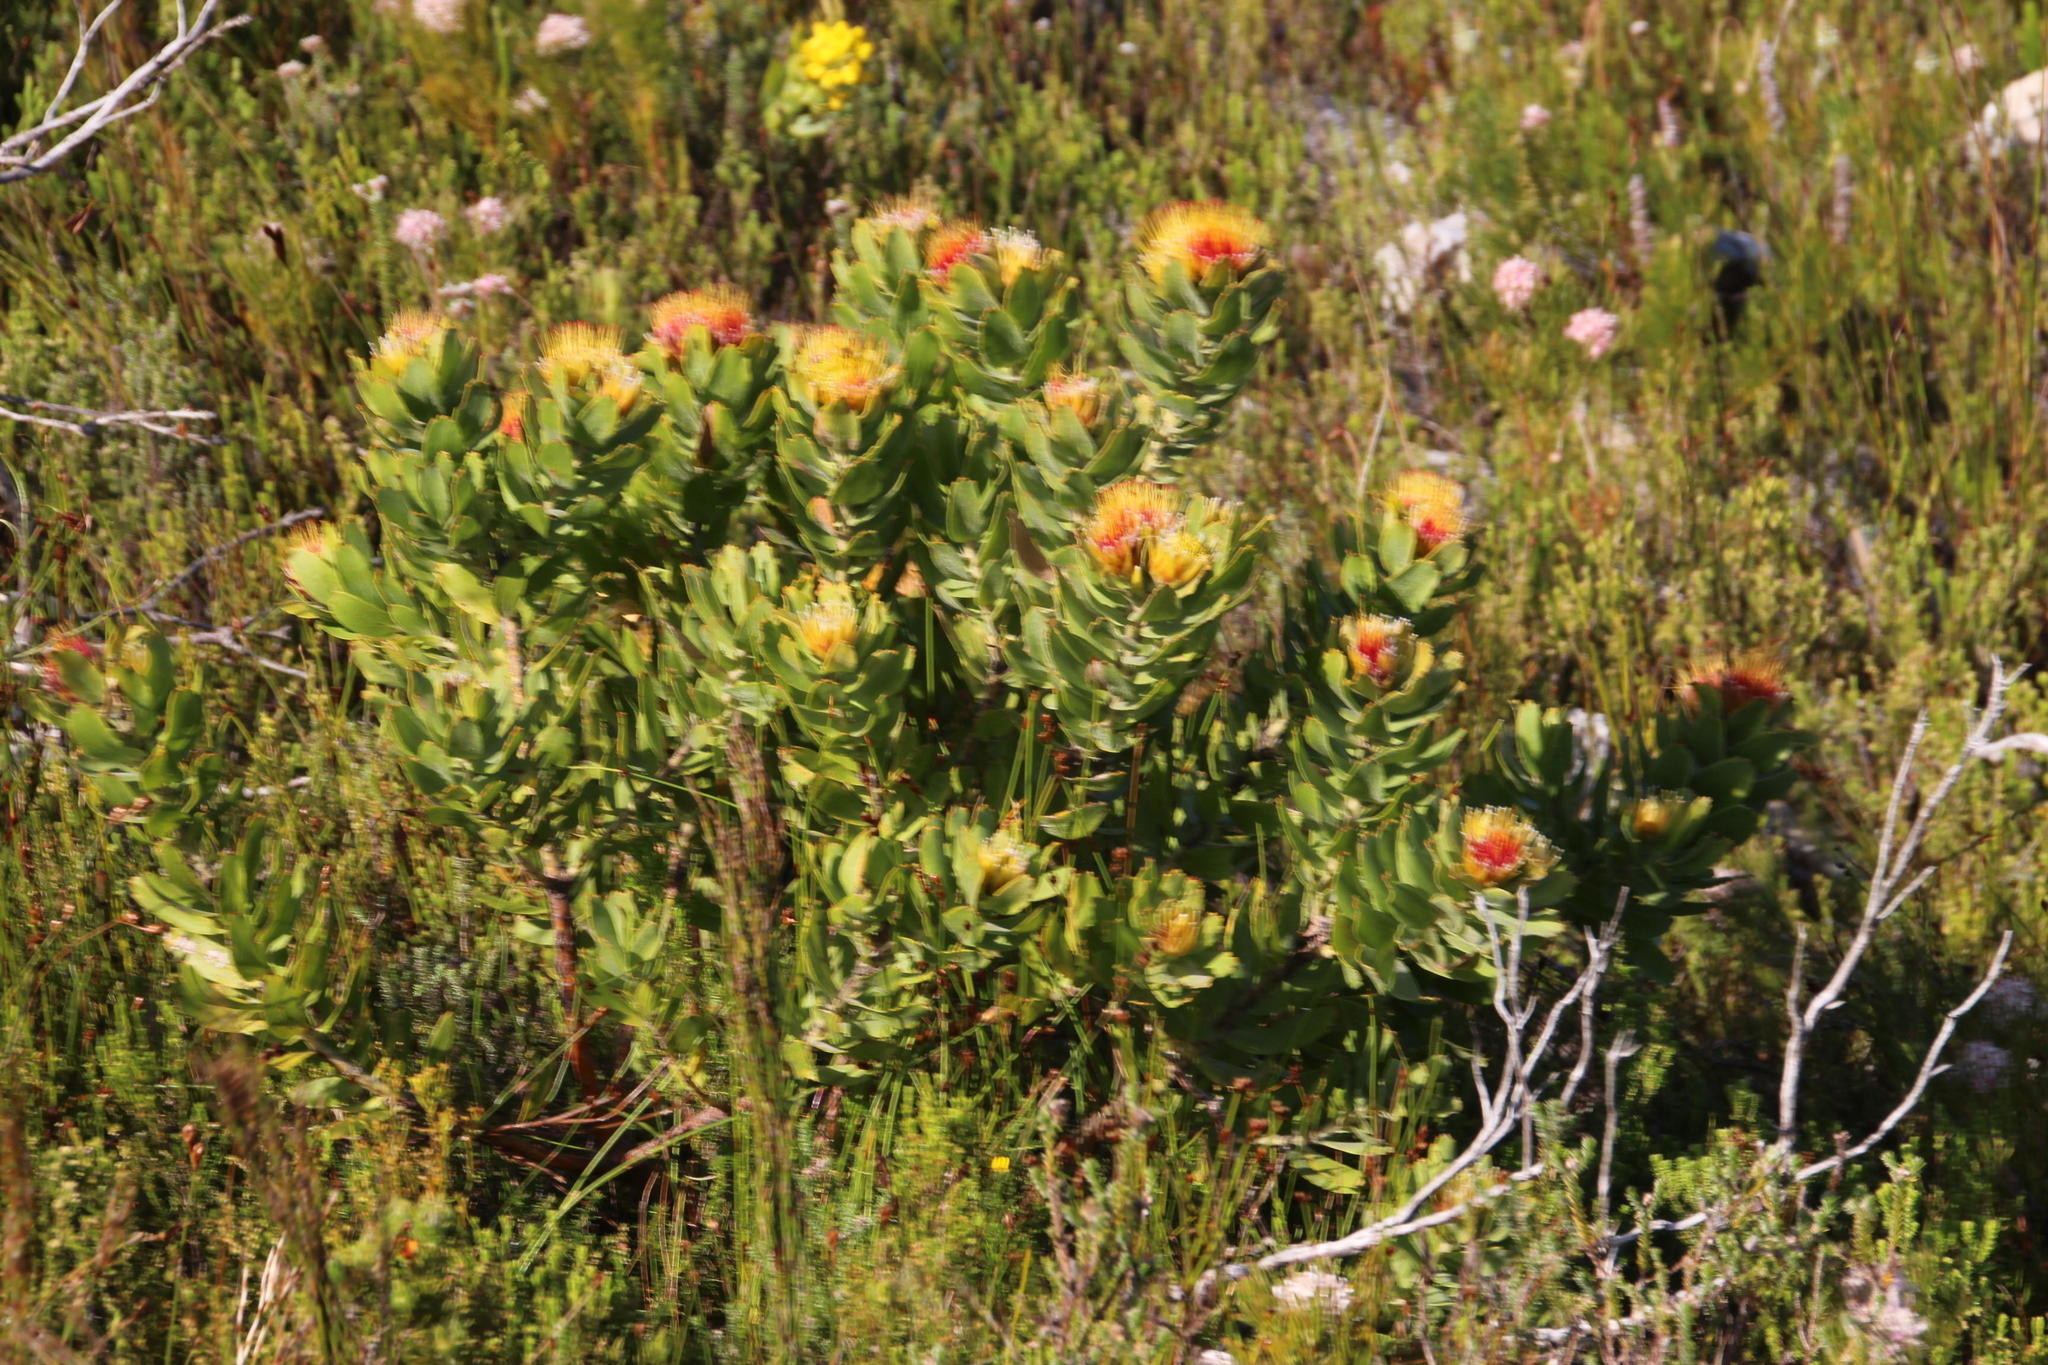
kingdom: Plantae
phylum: Tracheophyta
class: Magnoliopsida
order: Proteales
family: Proteaceae
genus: Leucospermum
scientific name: Leucospermum oleifolium
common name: Matches
